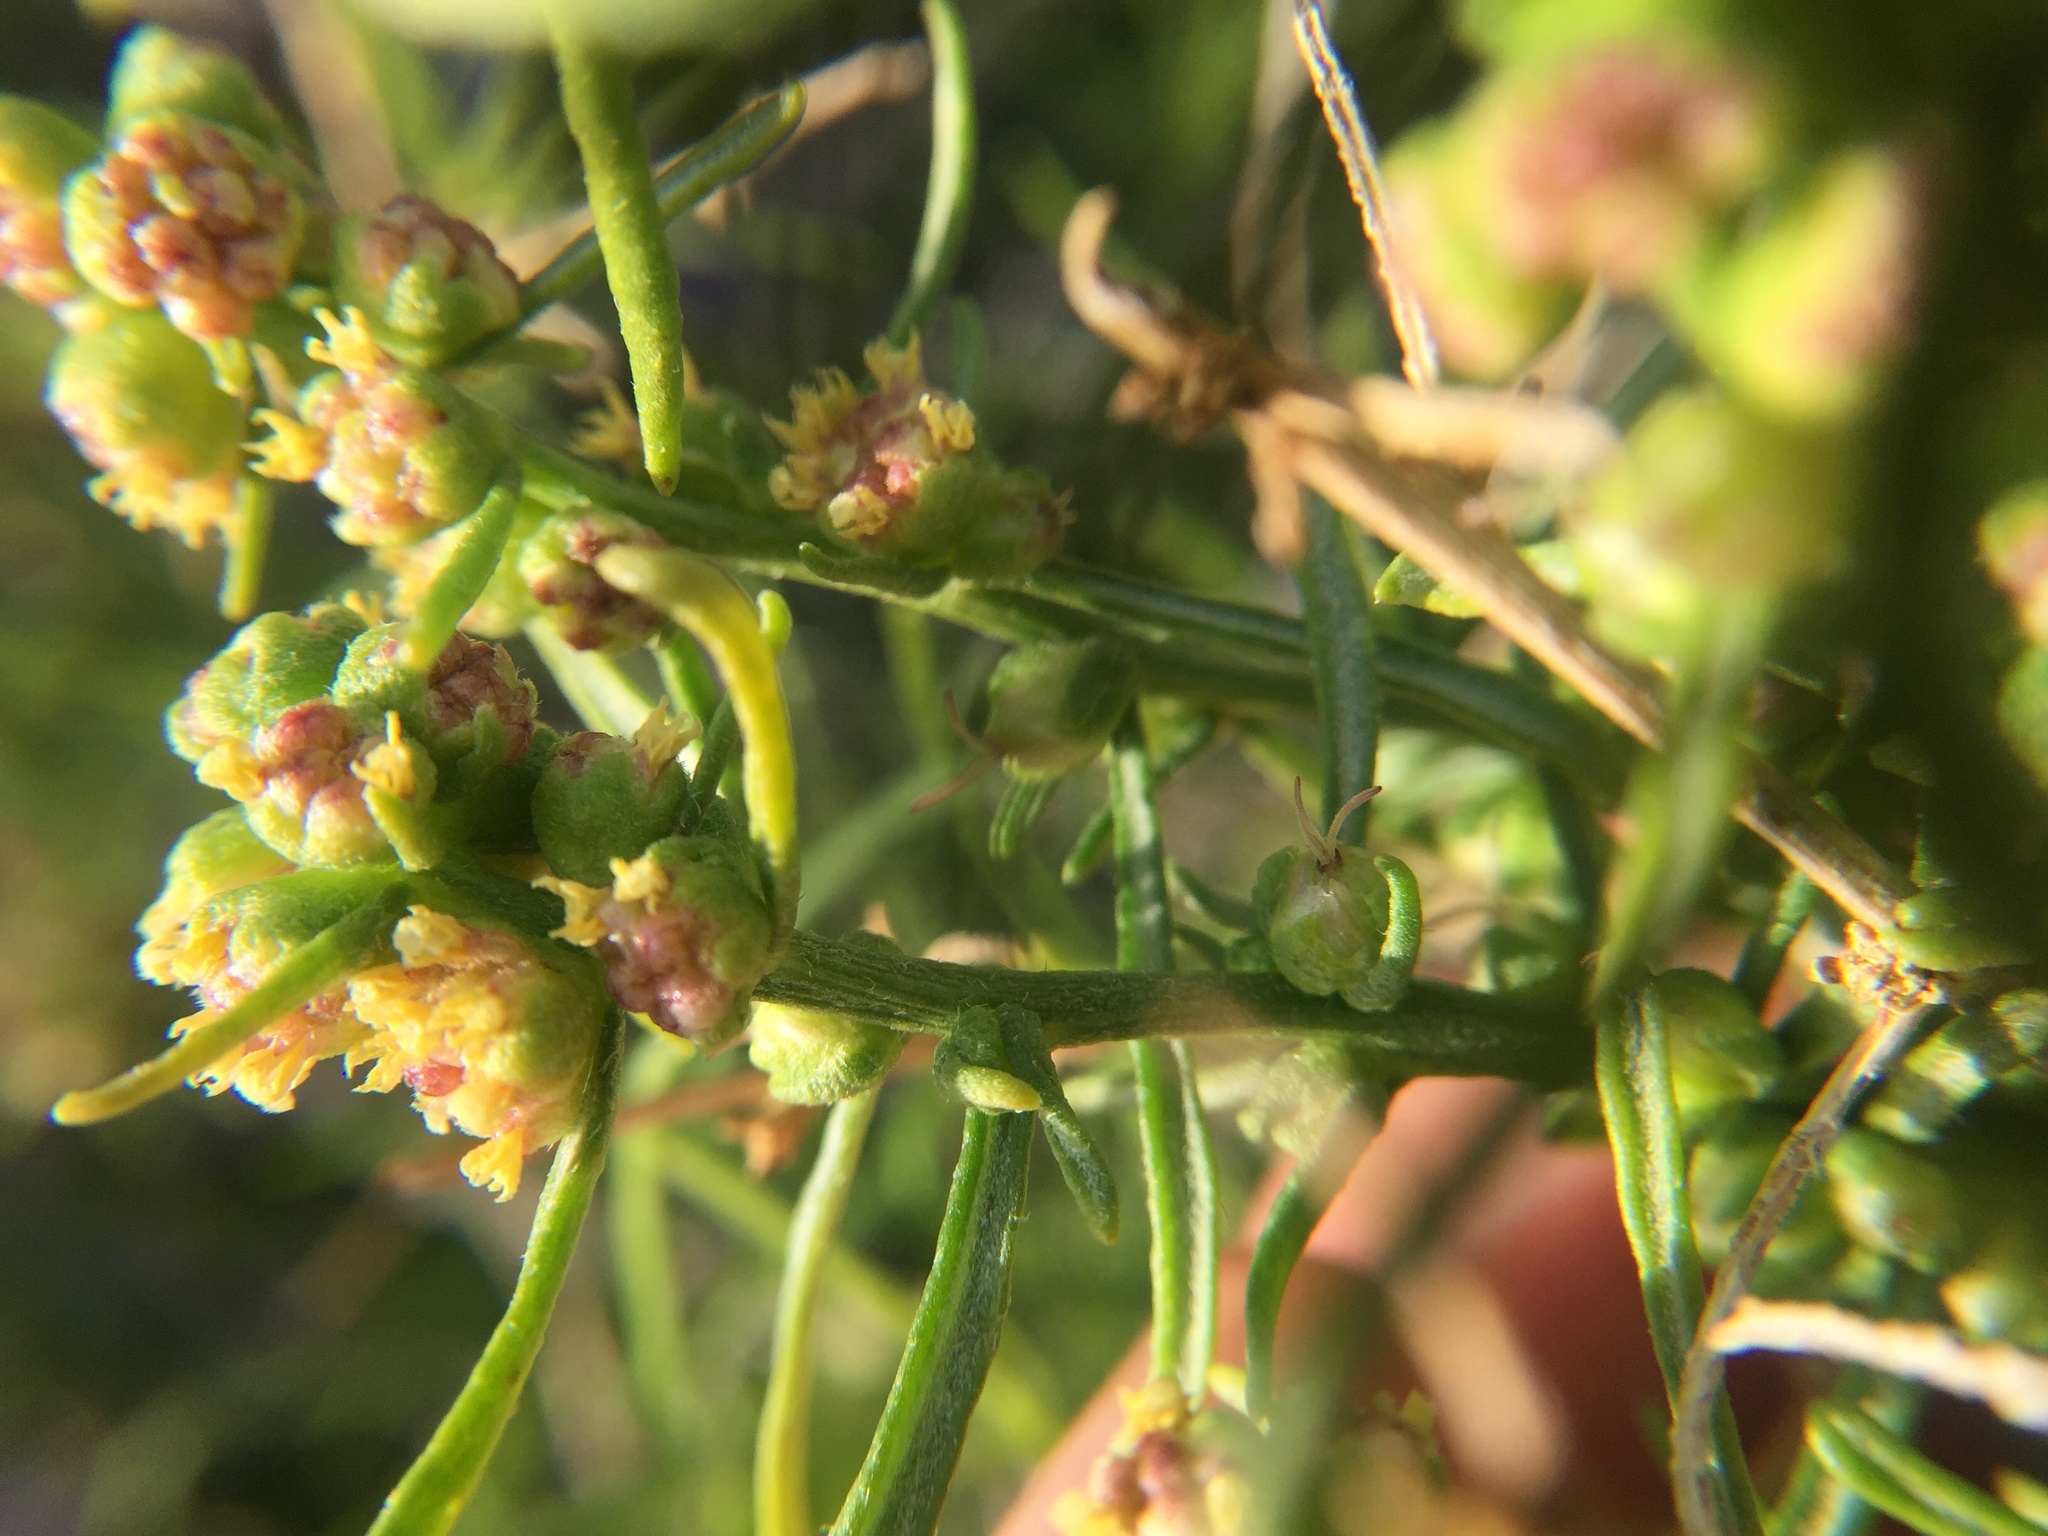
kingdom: Plantae
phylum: Tracheophyta
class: Magnoliopsida
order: Asterales
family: Asteraceae
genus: Ambrosia
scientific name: Ambrosia salsola
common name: Burrobrush
